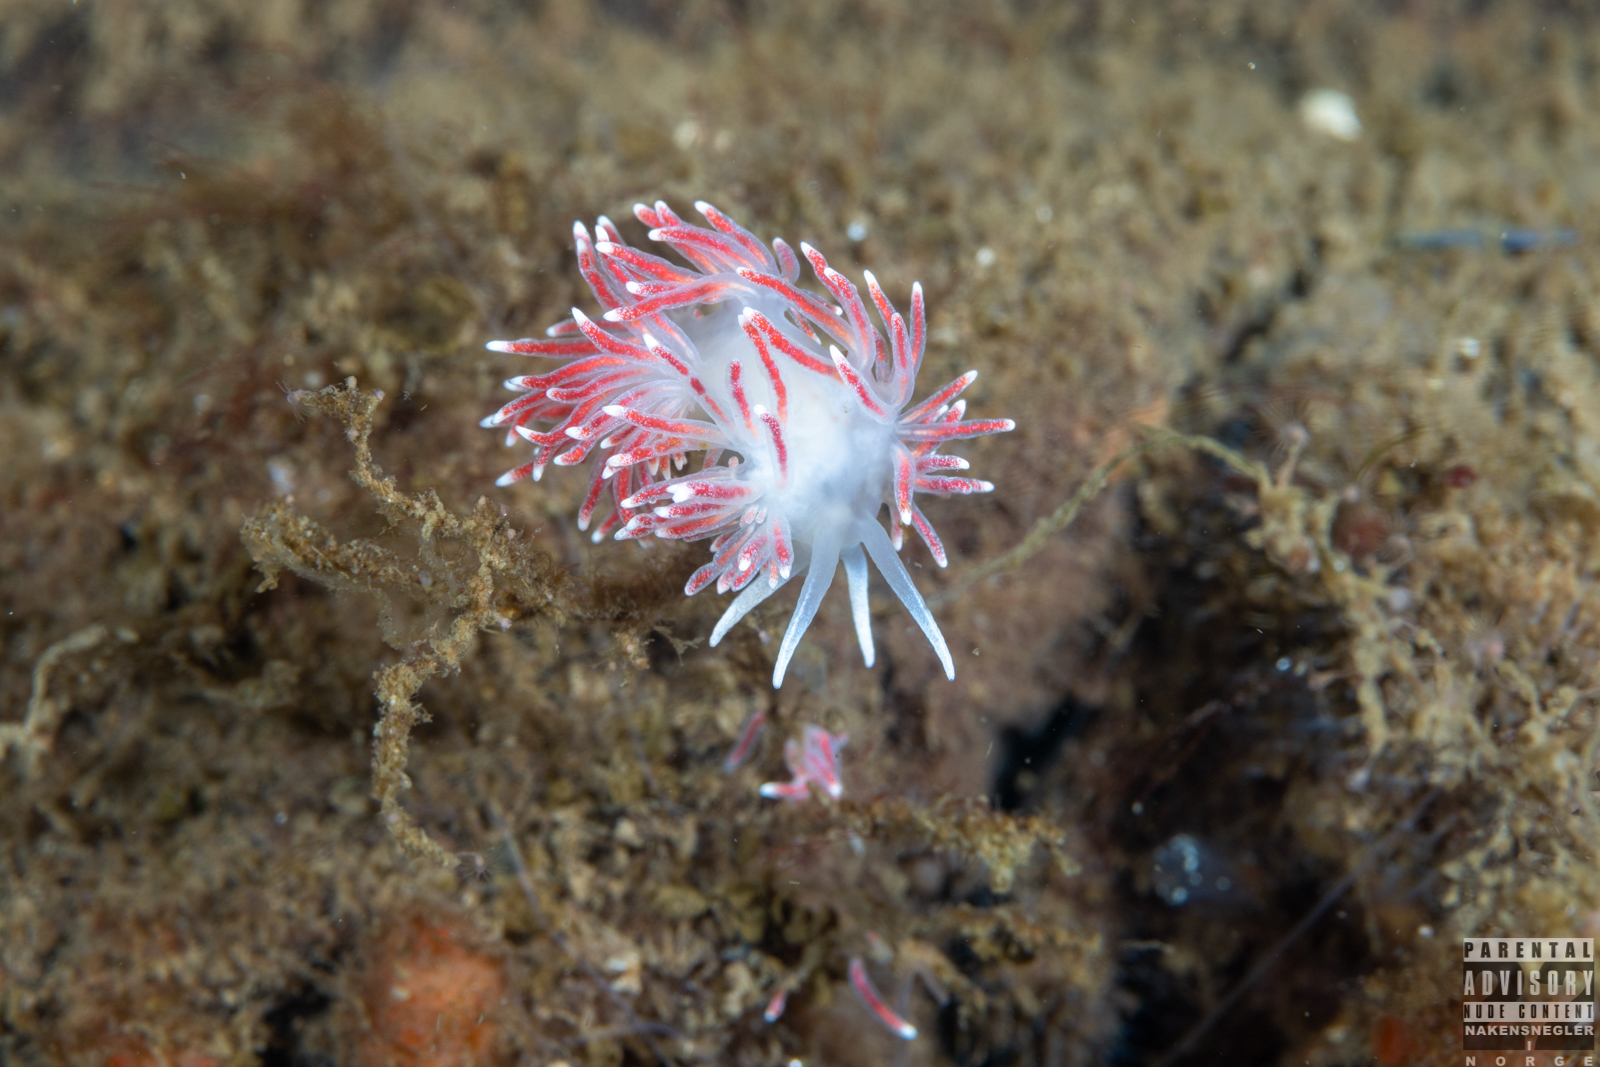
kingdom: Animalia
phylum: Mollusca
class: Gastropoda
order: Nudibranchia
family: Flabellinidae
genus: Carronella
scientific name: Carronella pellucida
